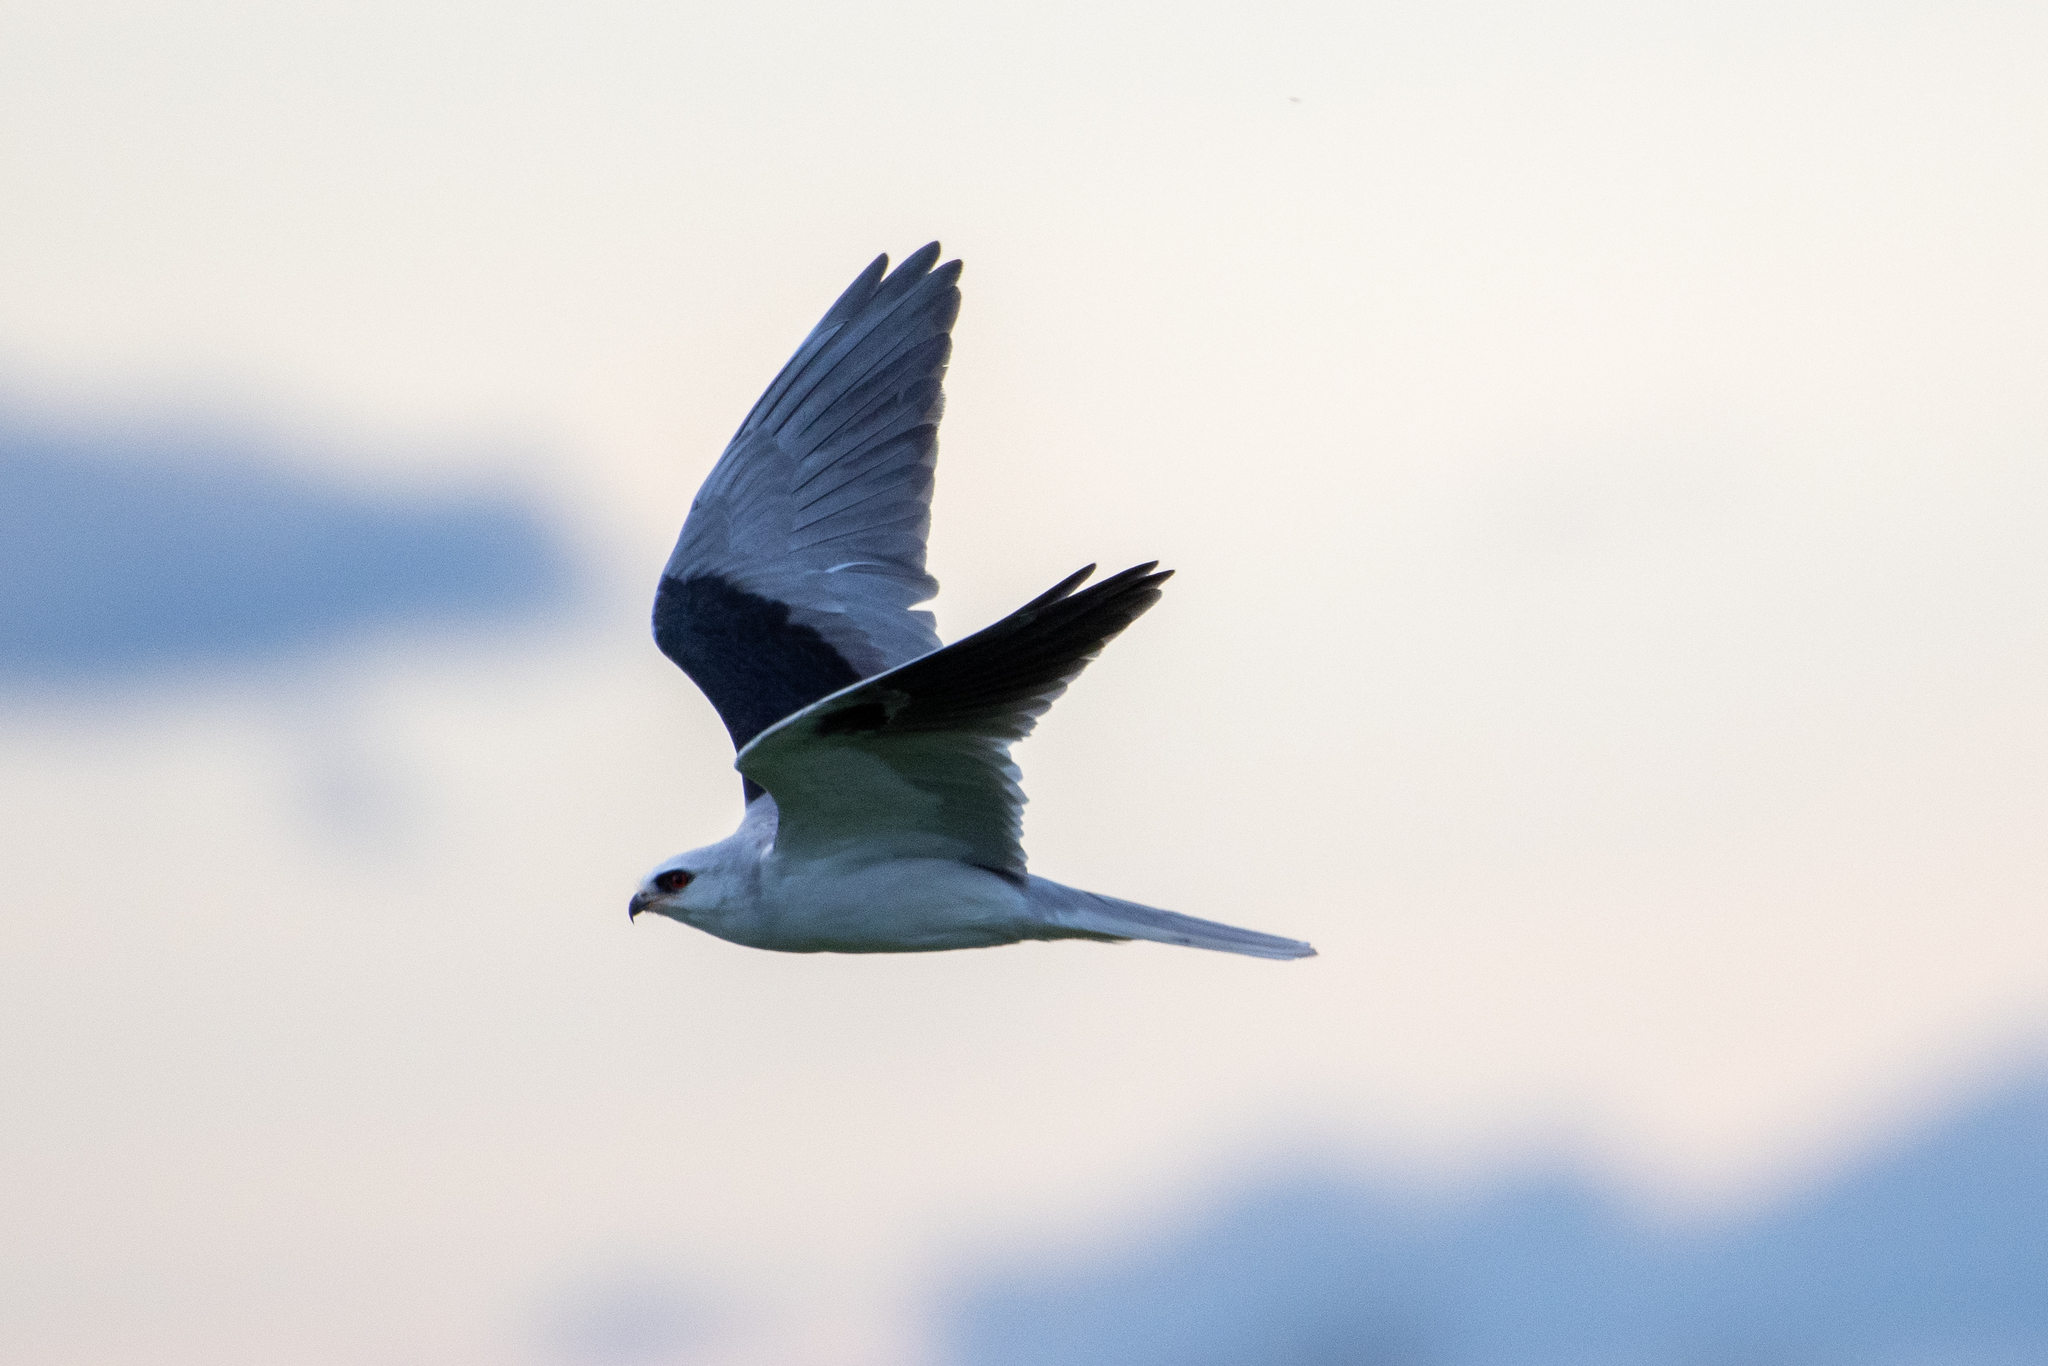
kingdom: Animalia
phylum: Chordata
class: Aves
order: Accipitriformes
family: Accipitridae
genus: Elanus
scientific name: Elanus leucurus
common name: White-tailed kite
